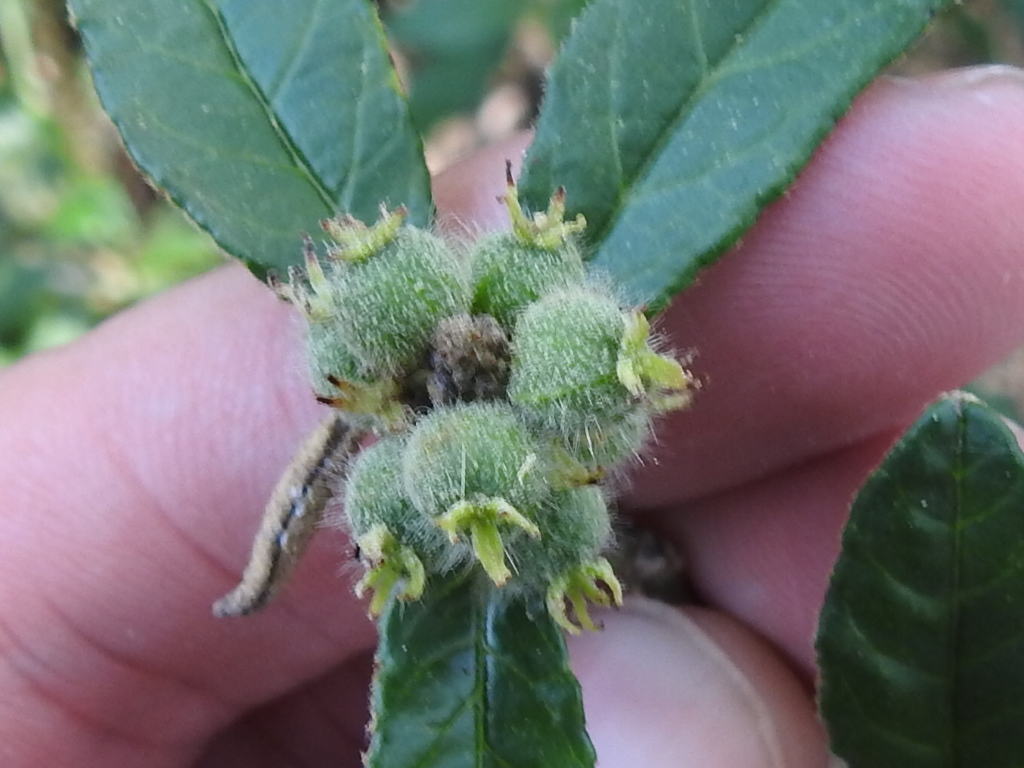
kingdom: Plantae
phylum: Tracheophyta
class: Magnoliopsida
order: Malpighiales
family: Euphorbiaceae
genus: Croton
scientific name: Croton cortesianus
